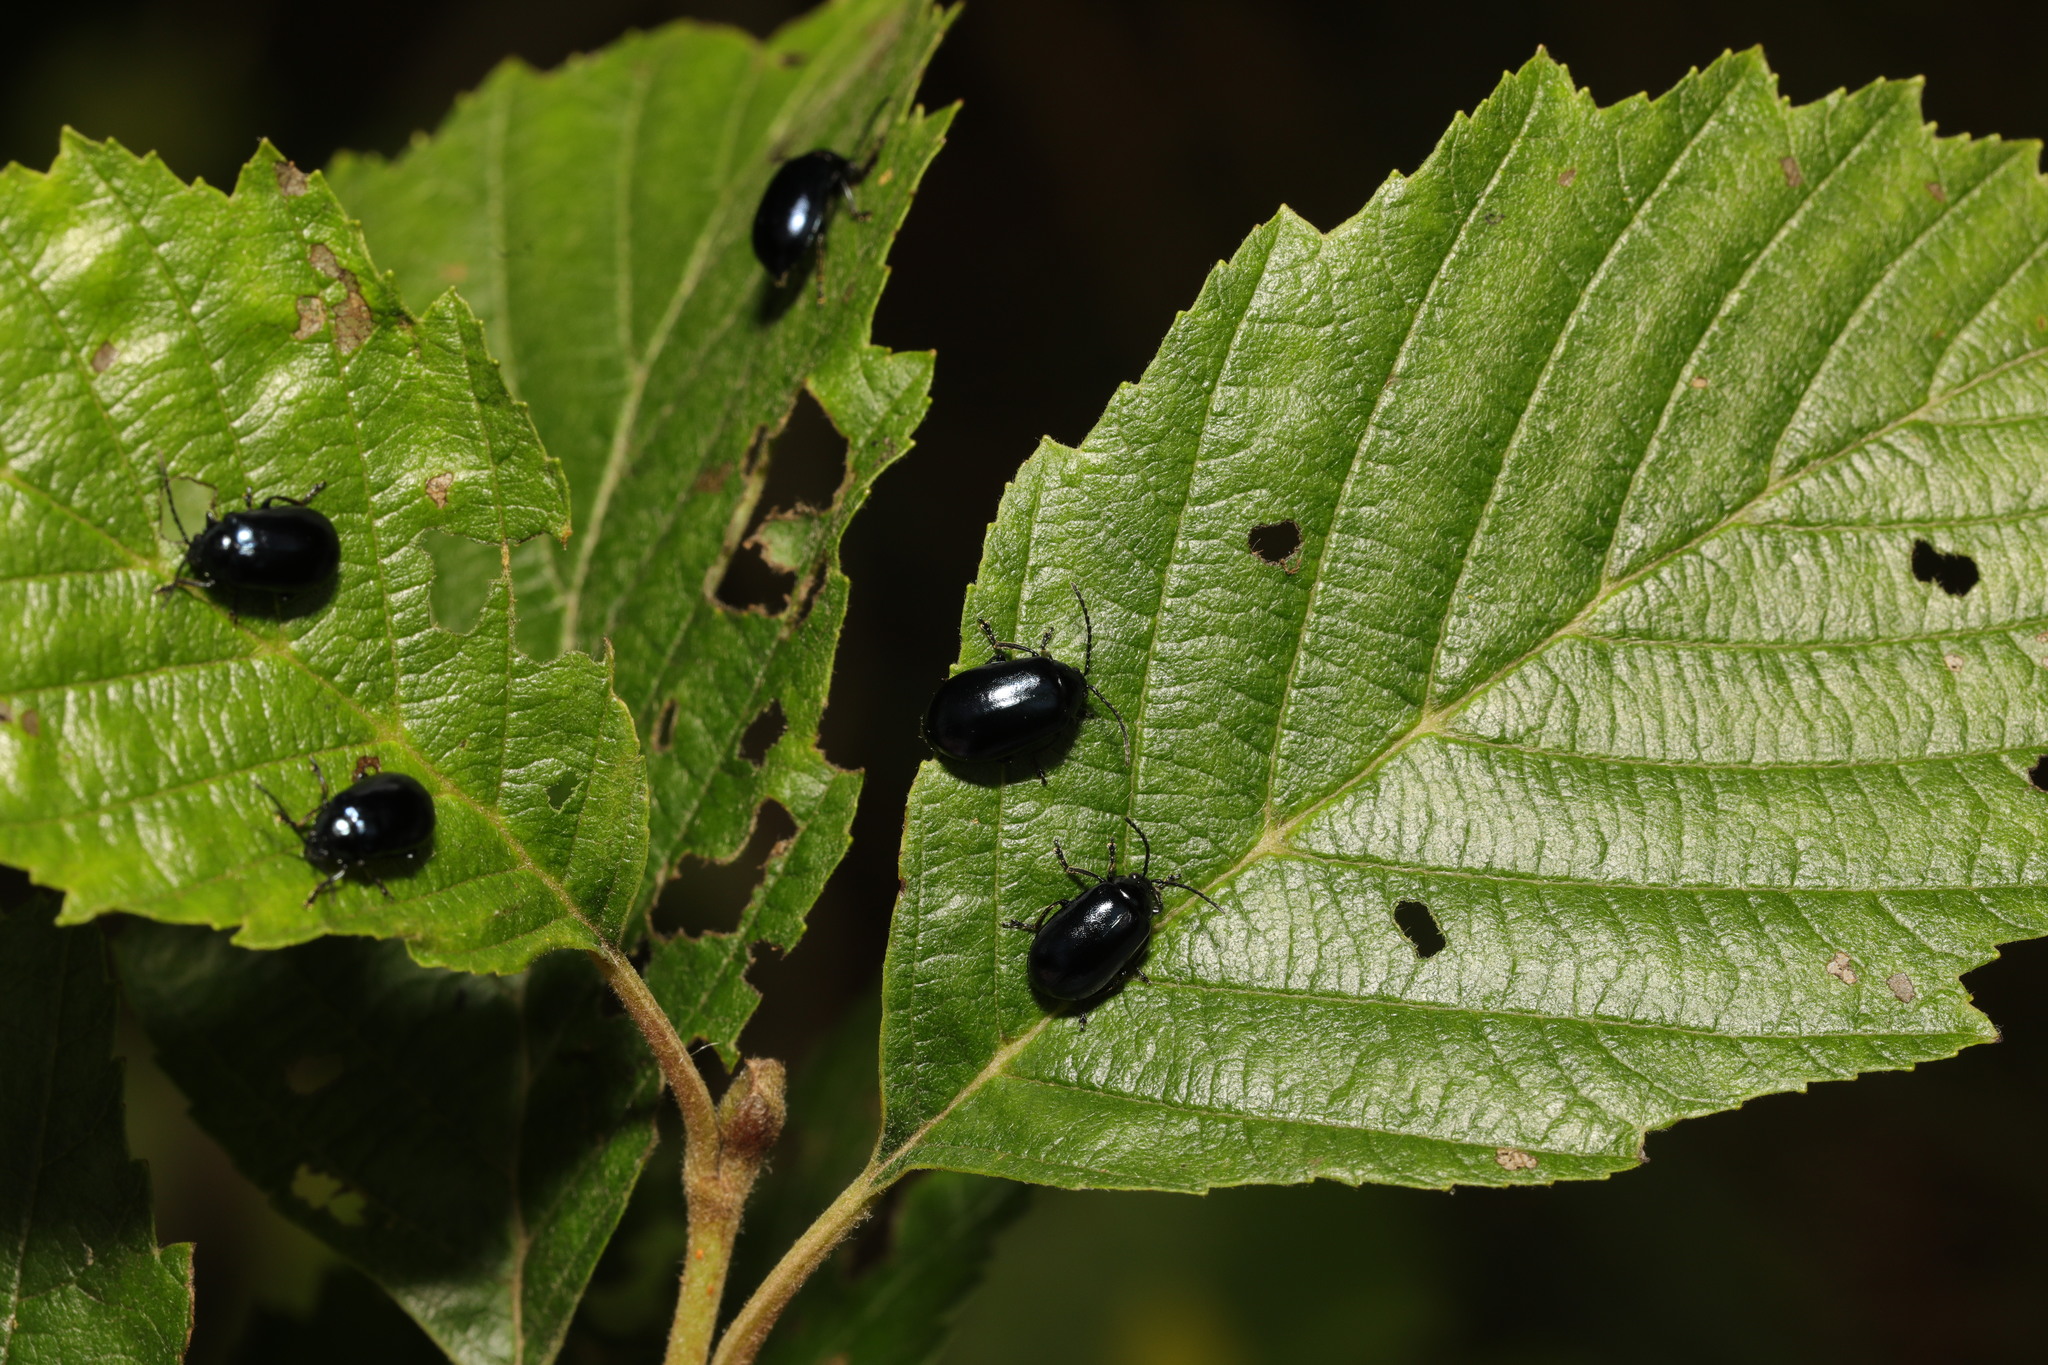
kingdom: Animalia
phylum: Arthropoda
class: Insecta
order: Coleoptera
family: Chrysomelidae
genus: Agelastica
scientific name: Agelastica alni
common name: Alder leaf beetle
